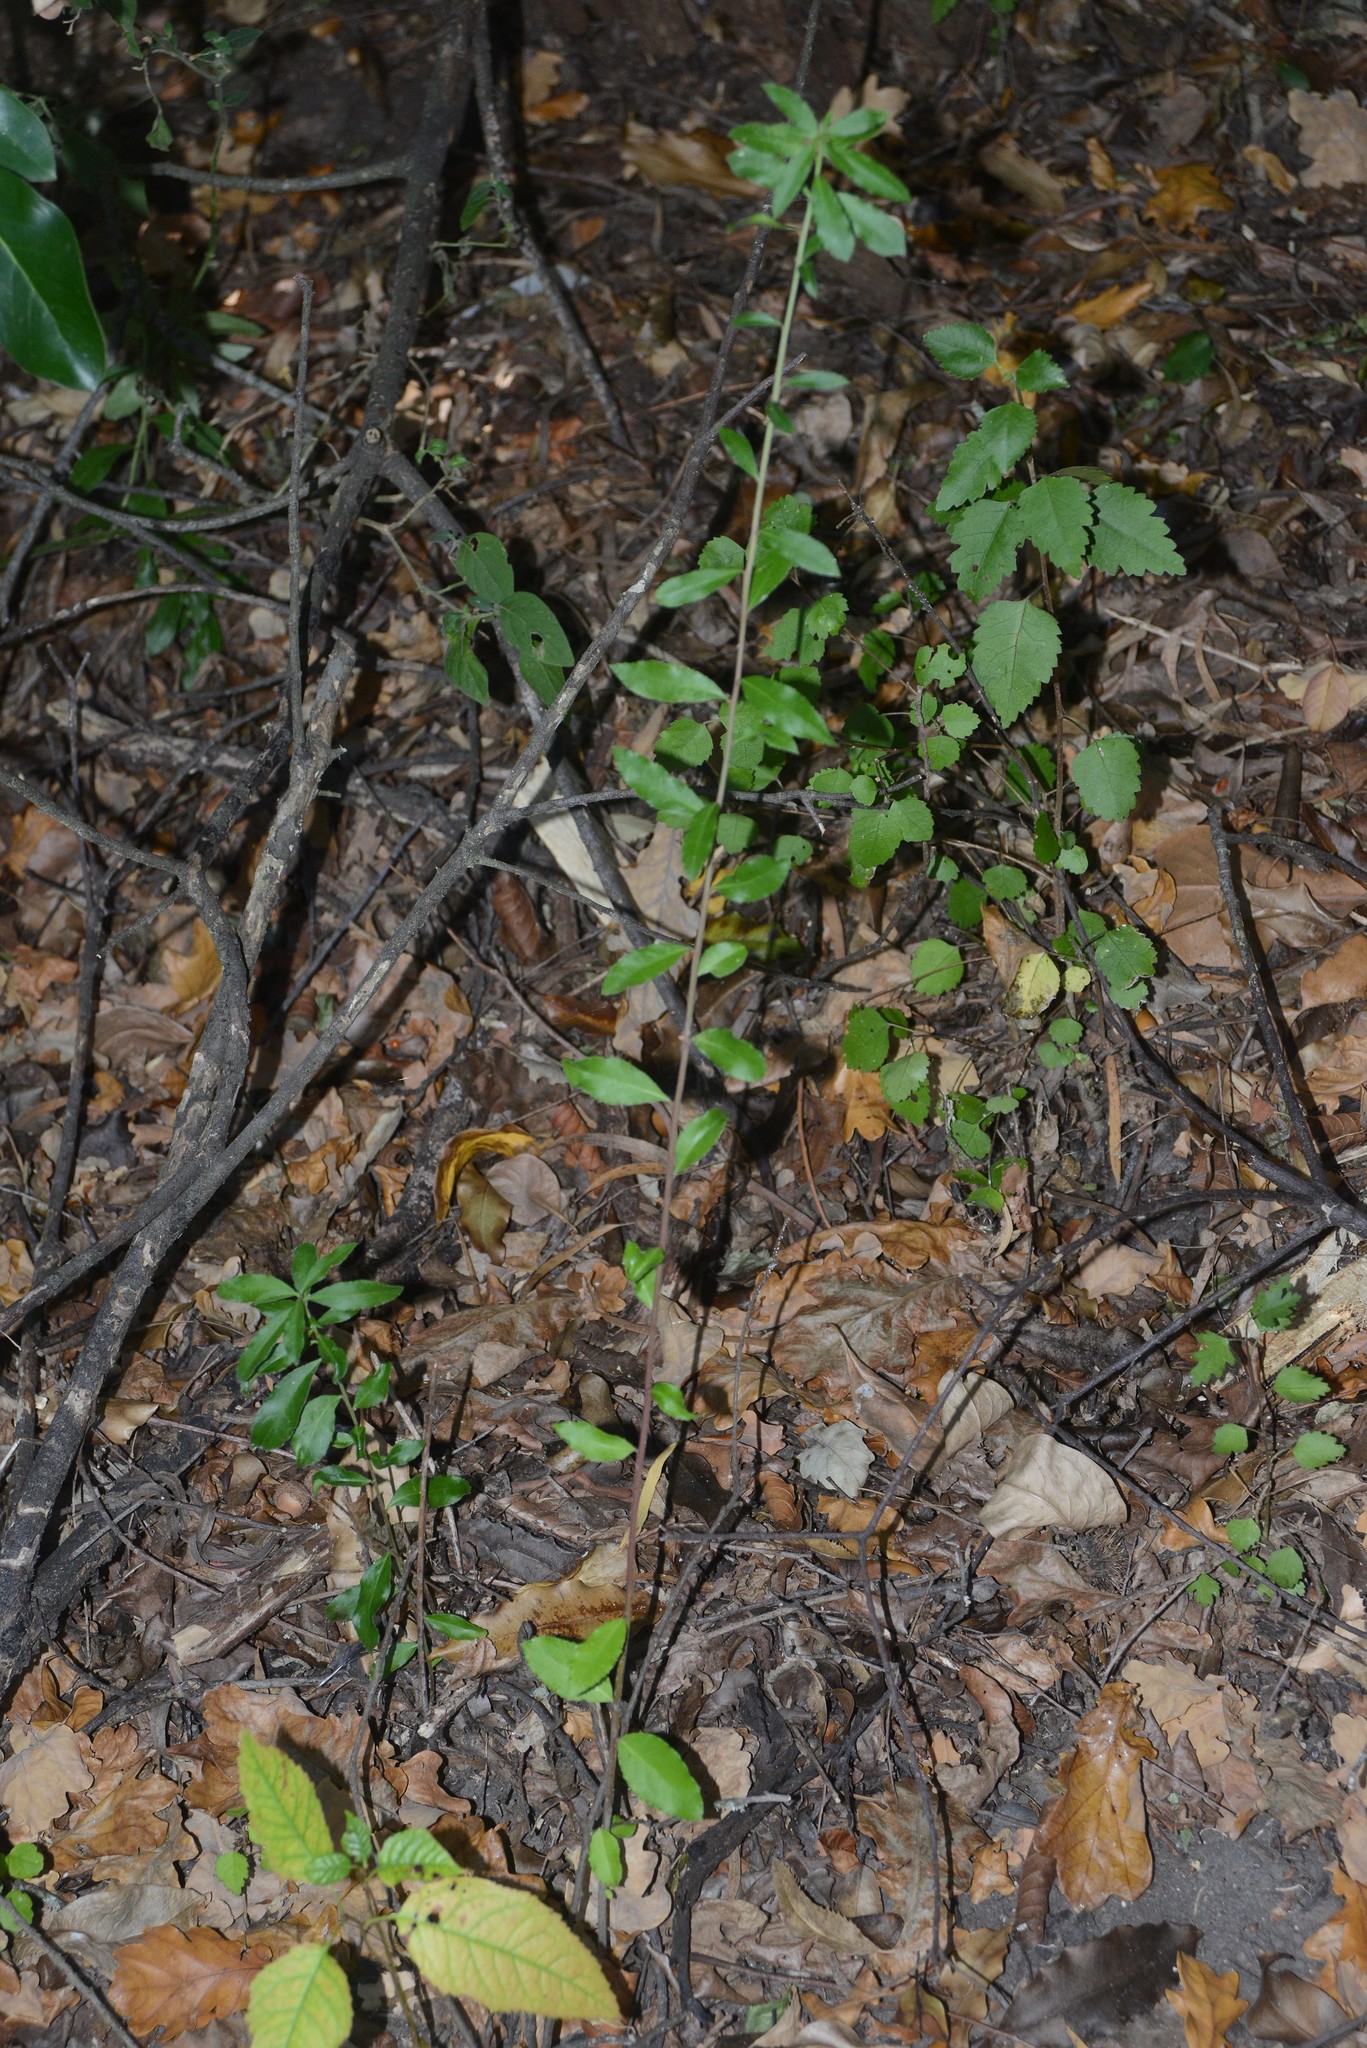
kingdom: Plantae
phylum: Tracheophyta
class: Magnoliopsida
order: Celastrales
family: Celastraceae
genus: Maytenus
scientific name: Maytenus boaria
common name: Mayten
